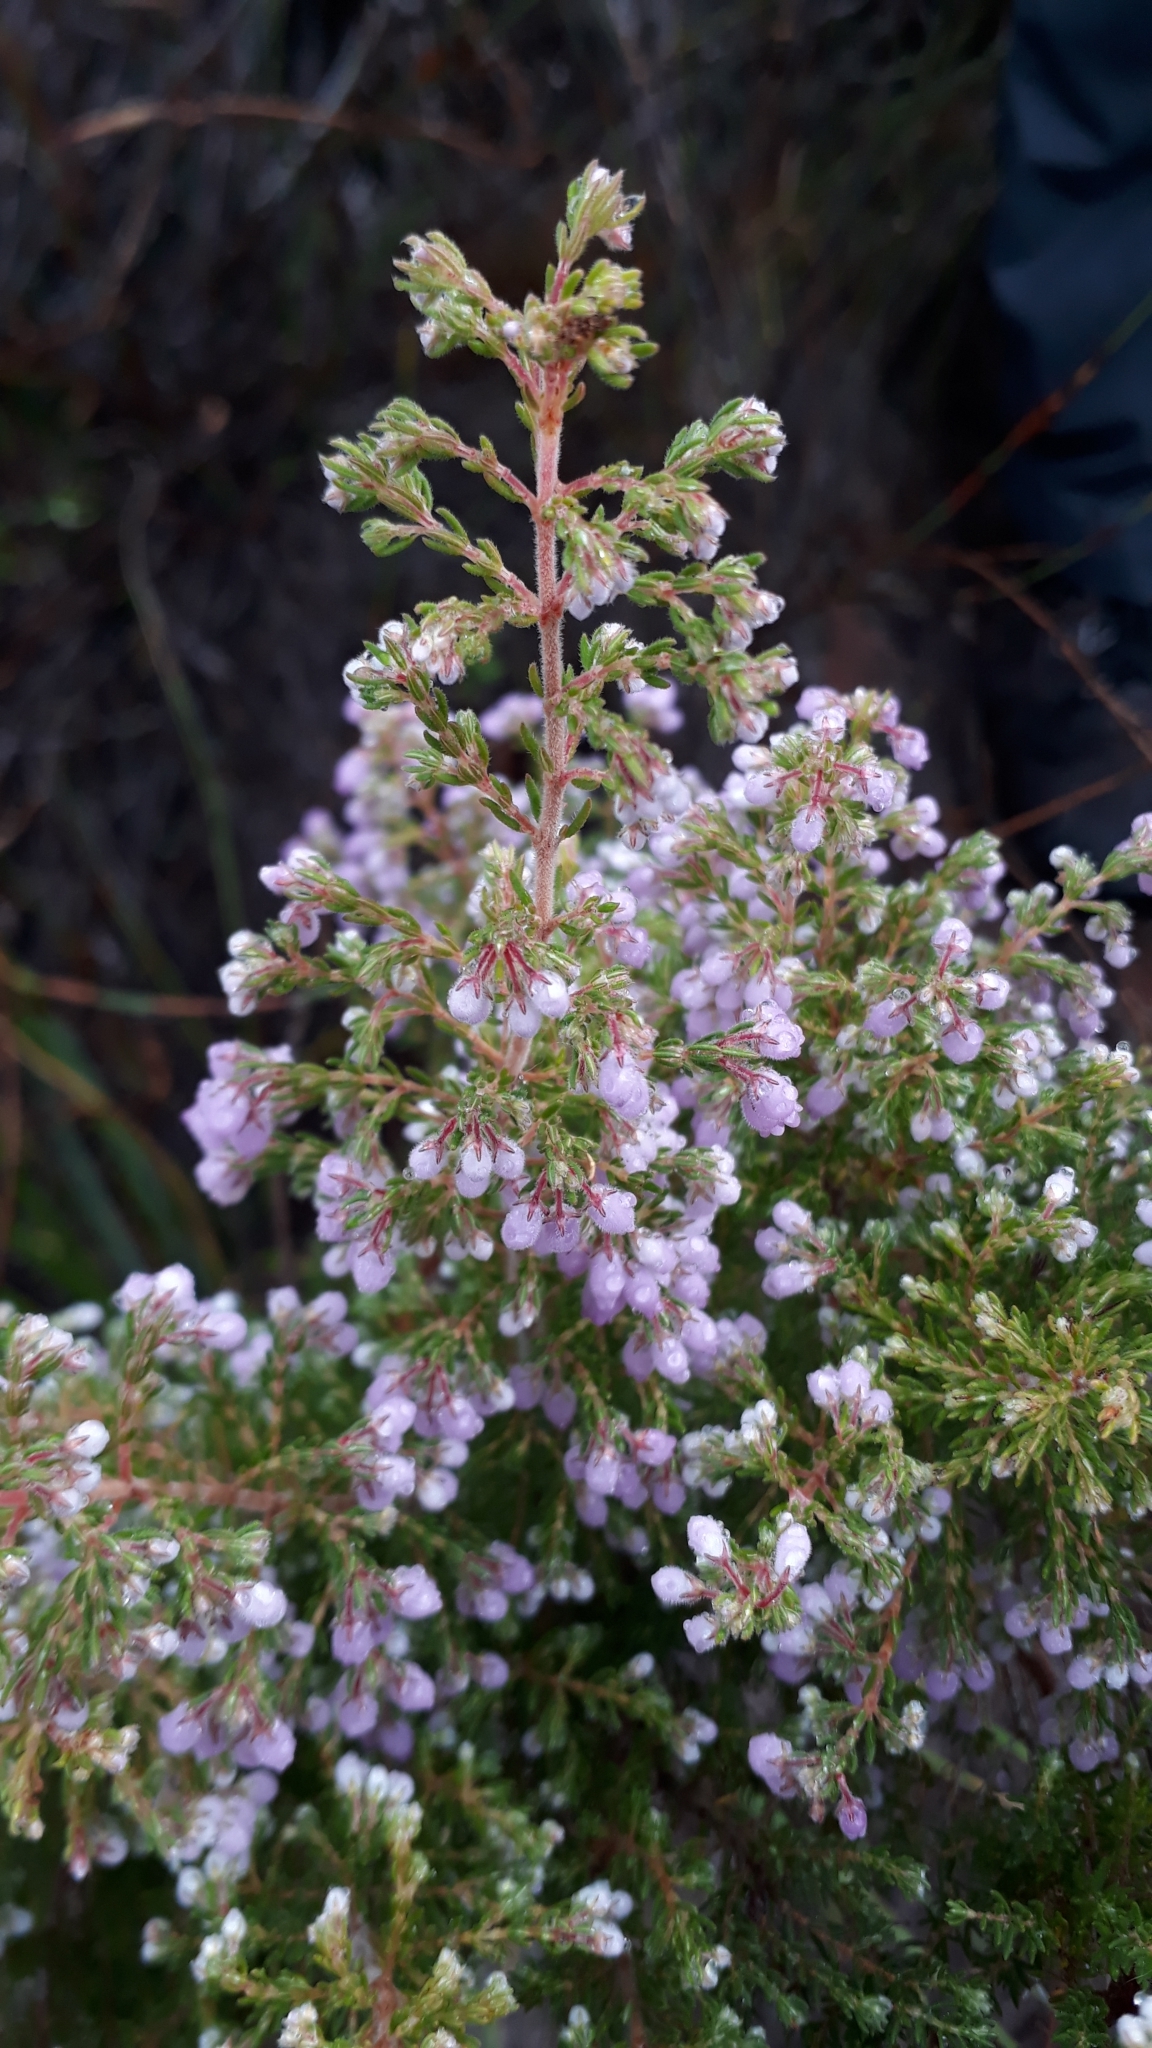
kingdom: Plantae
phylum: Tracheophyta
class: Magnoliopsida
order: Ericales
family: Ericaceae
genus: Erica
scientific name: Erica hirtiflora
